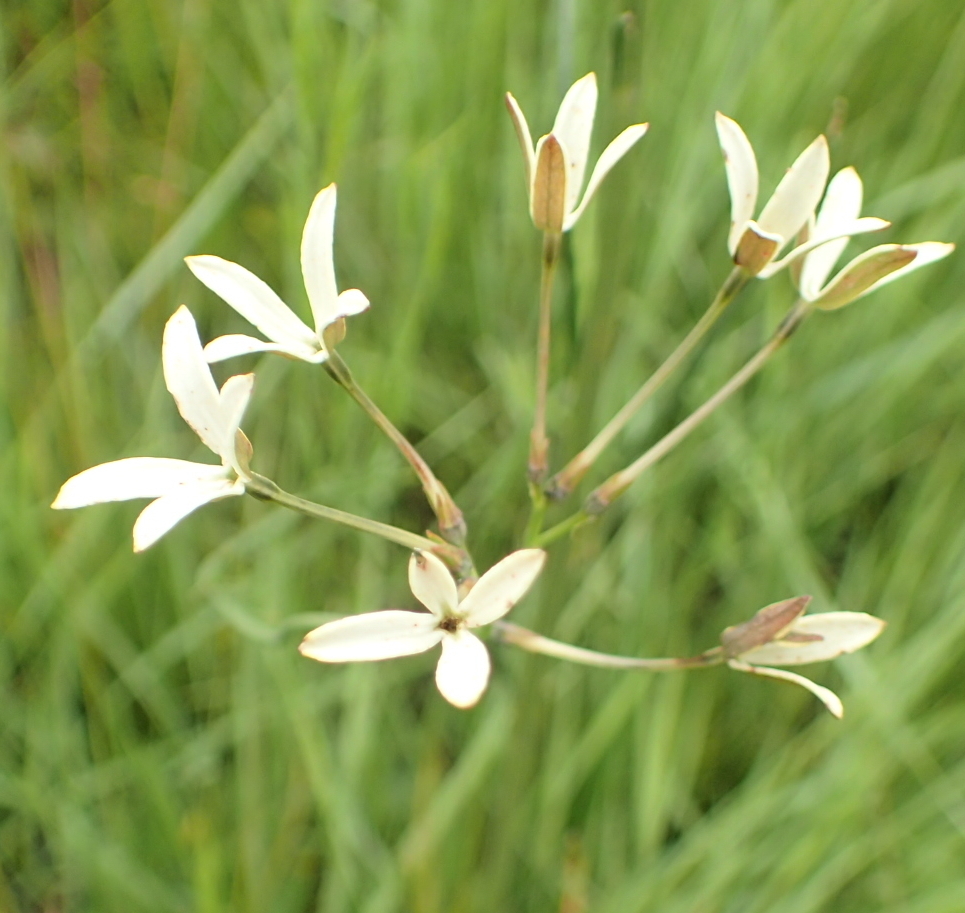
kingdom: Plantae
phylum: Tracheophyta
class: Magnoliopsida
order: Gentianales
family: Rubiaceae
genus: Kohautia
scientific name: Kohautia amatymbica
